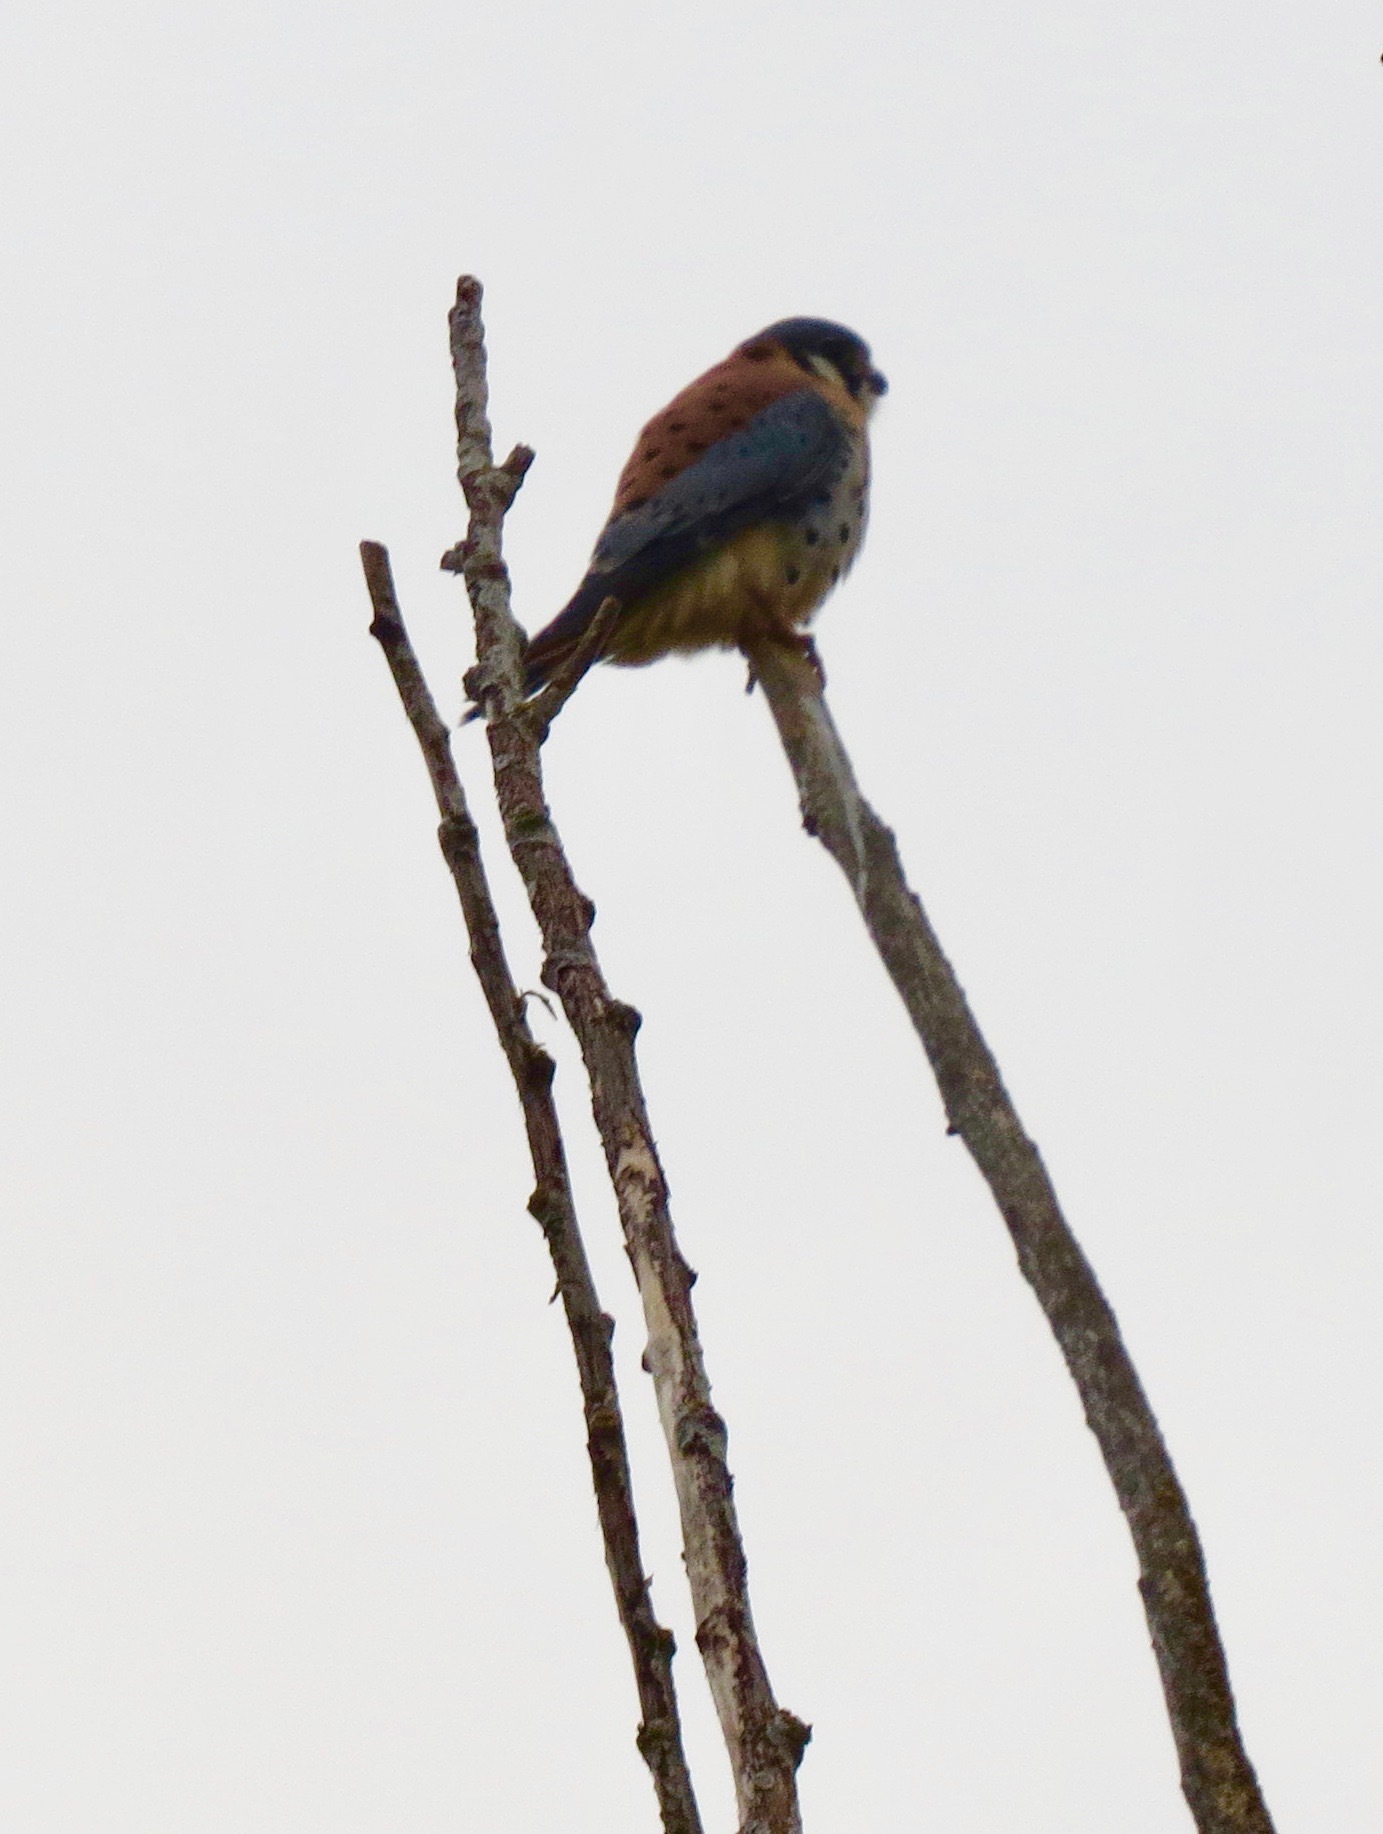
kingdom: Animalia
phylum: Chordata
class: Aves
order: Falconiformes
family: Falconidae
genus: Falco
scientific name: Falco sparverius
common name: American kestrel
